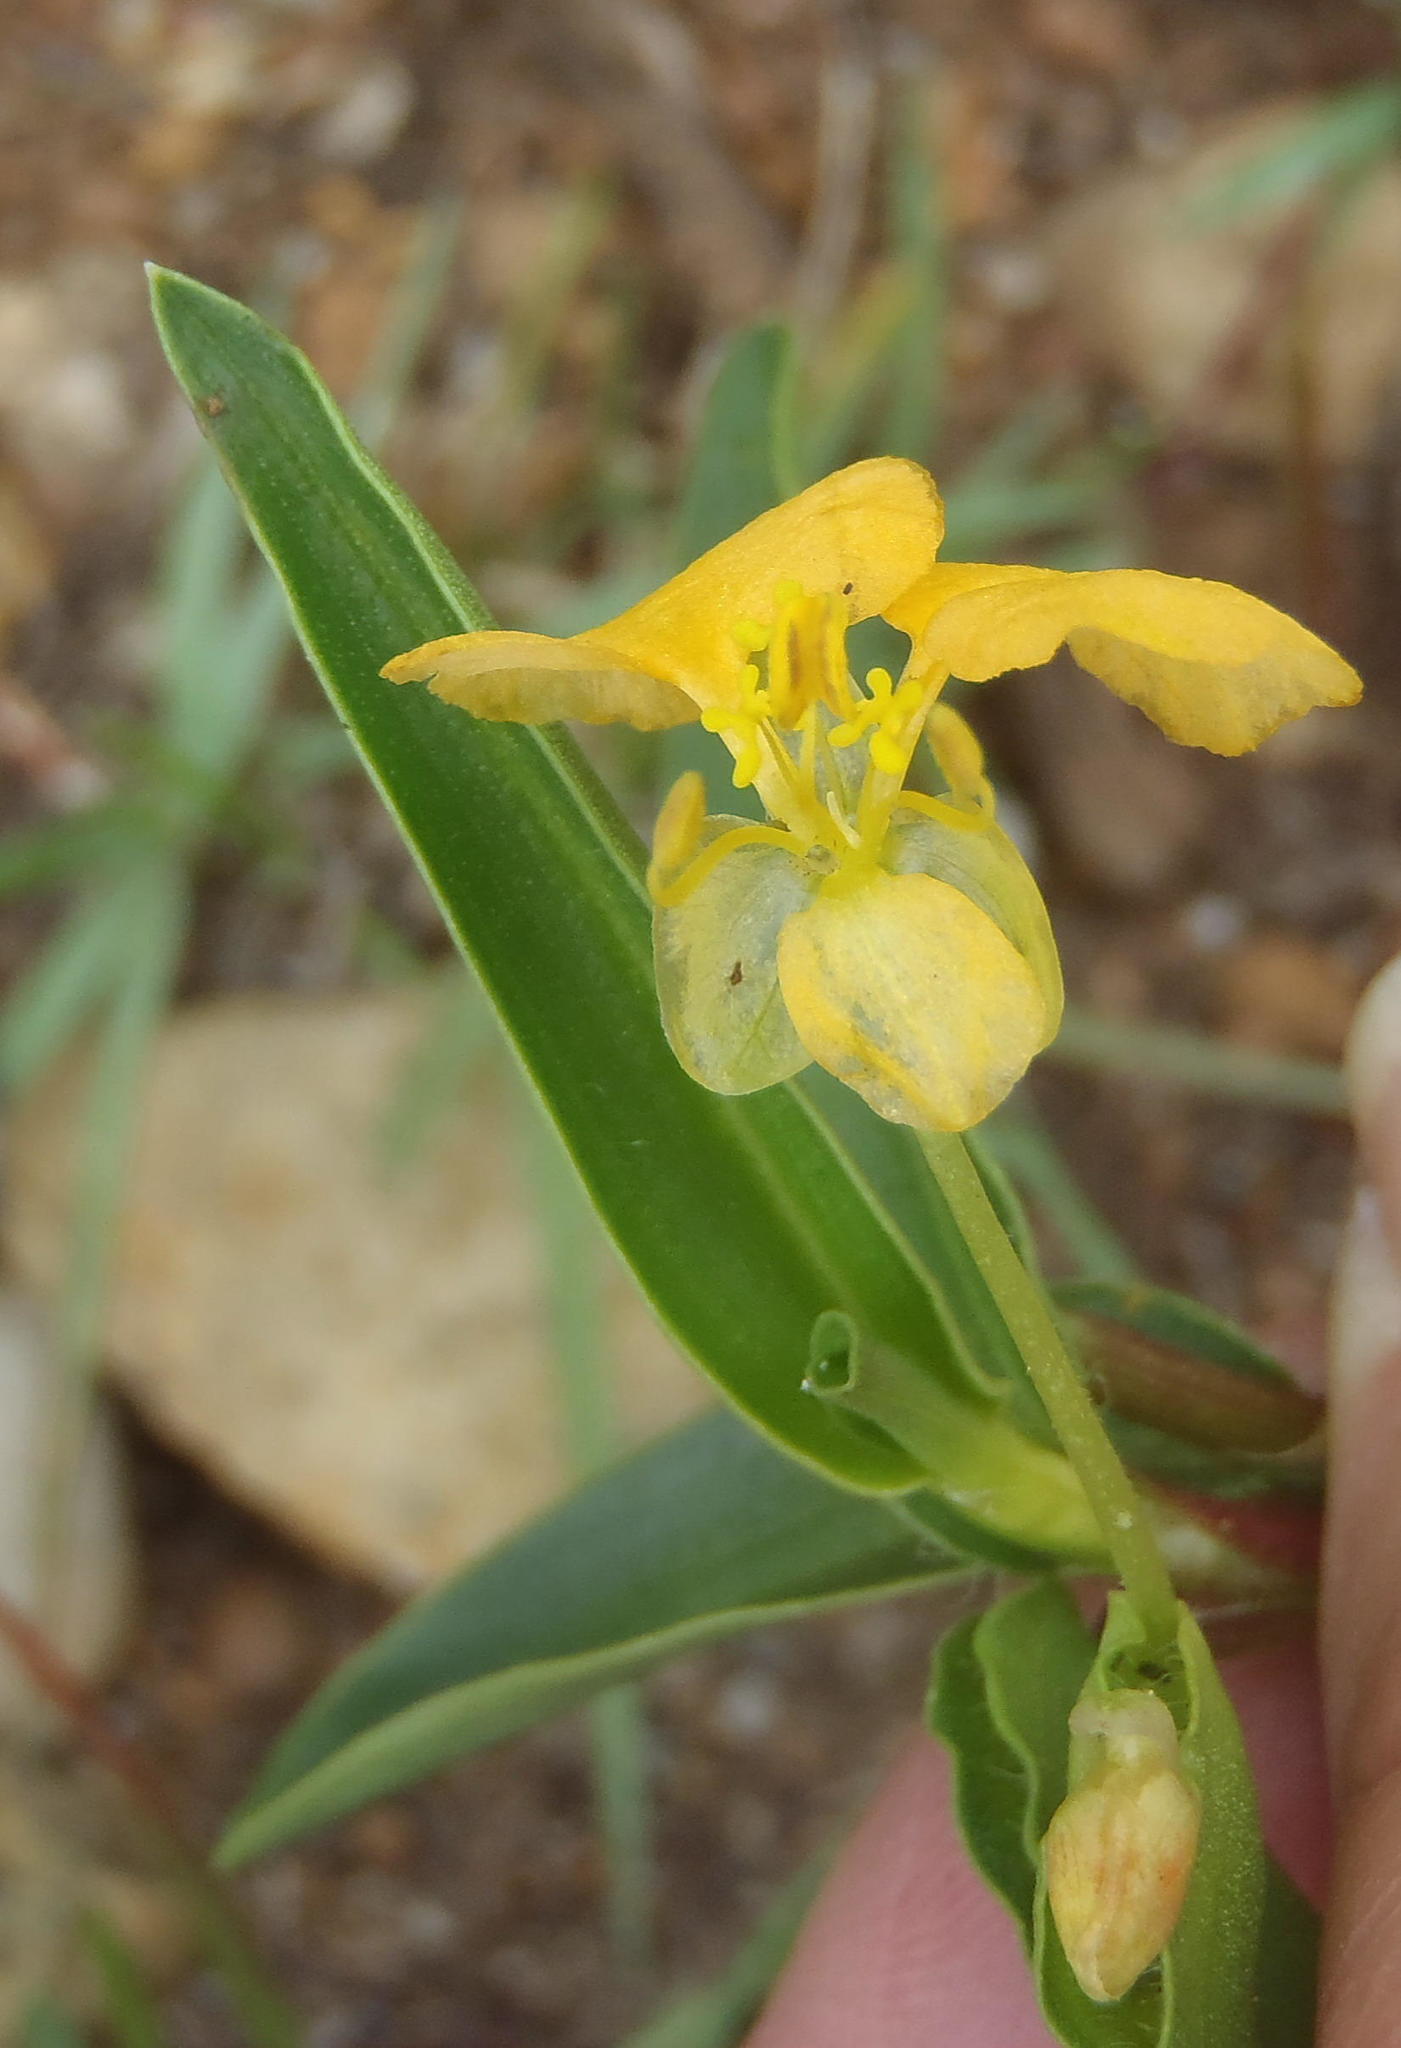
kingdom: Plantae
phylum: Tracheophyta
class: Liliopsida
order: Commelinales
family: Commelinaceae
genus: Commelina
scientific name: Commelina africana
